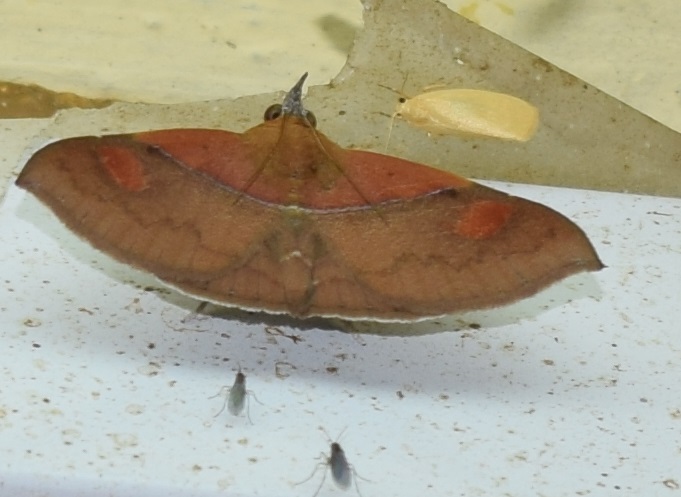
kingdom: Animalia
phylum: Arthropoda
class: Insecta
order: Lepidoptera
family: Erebidae
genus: Sympis
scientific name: Sympis rufibasis
